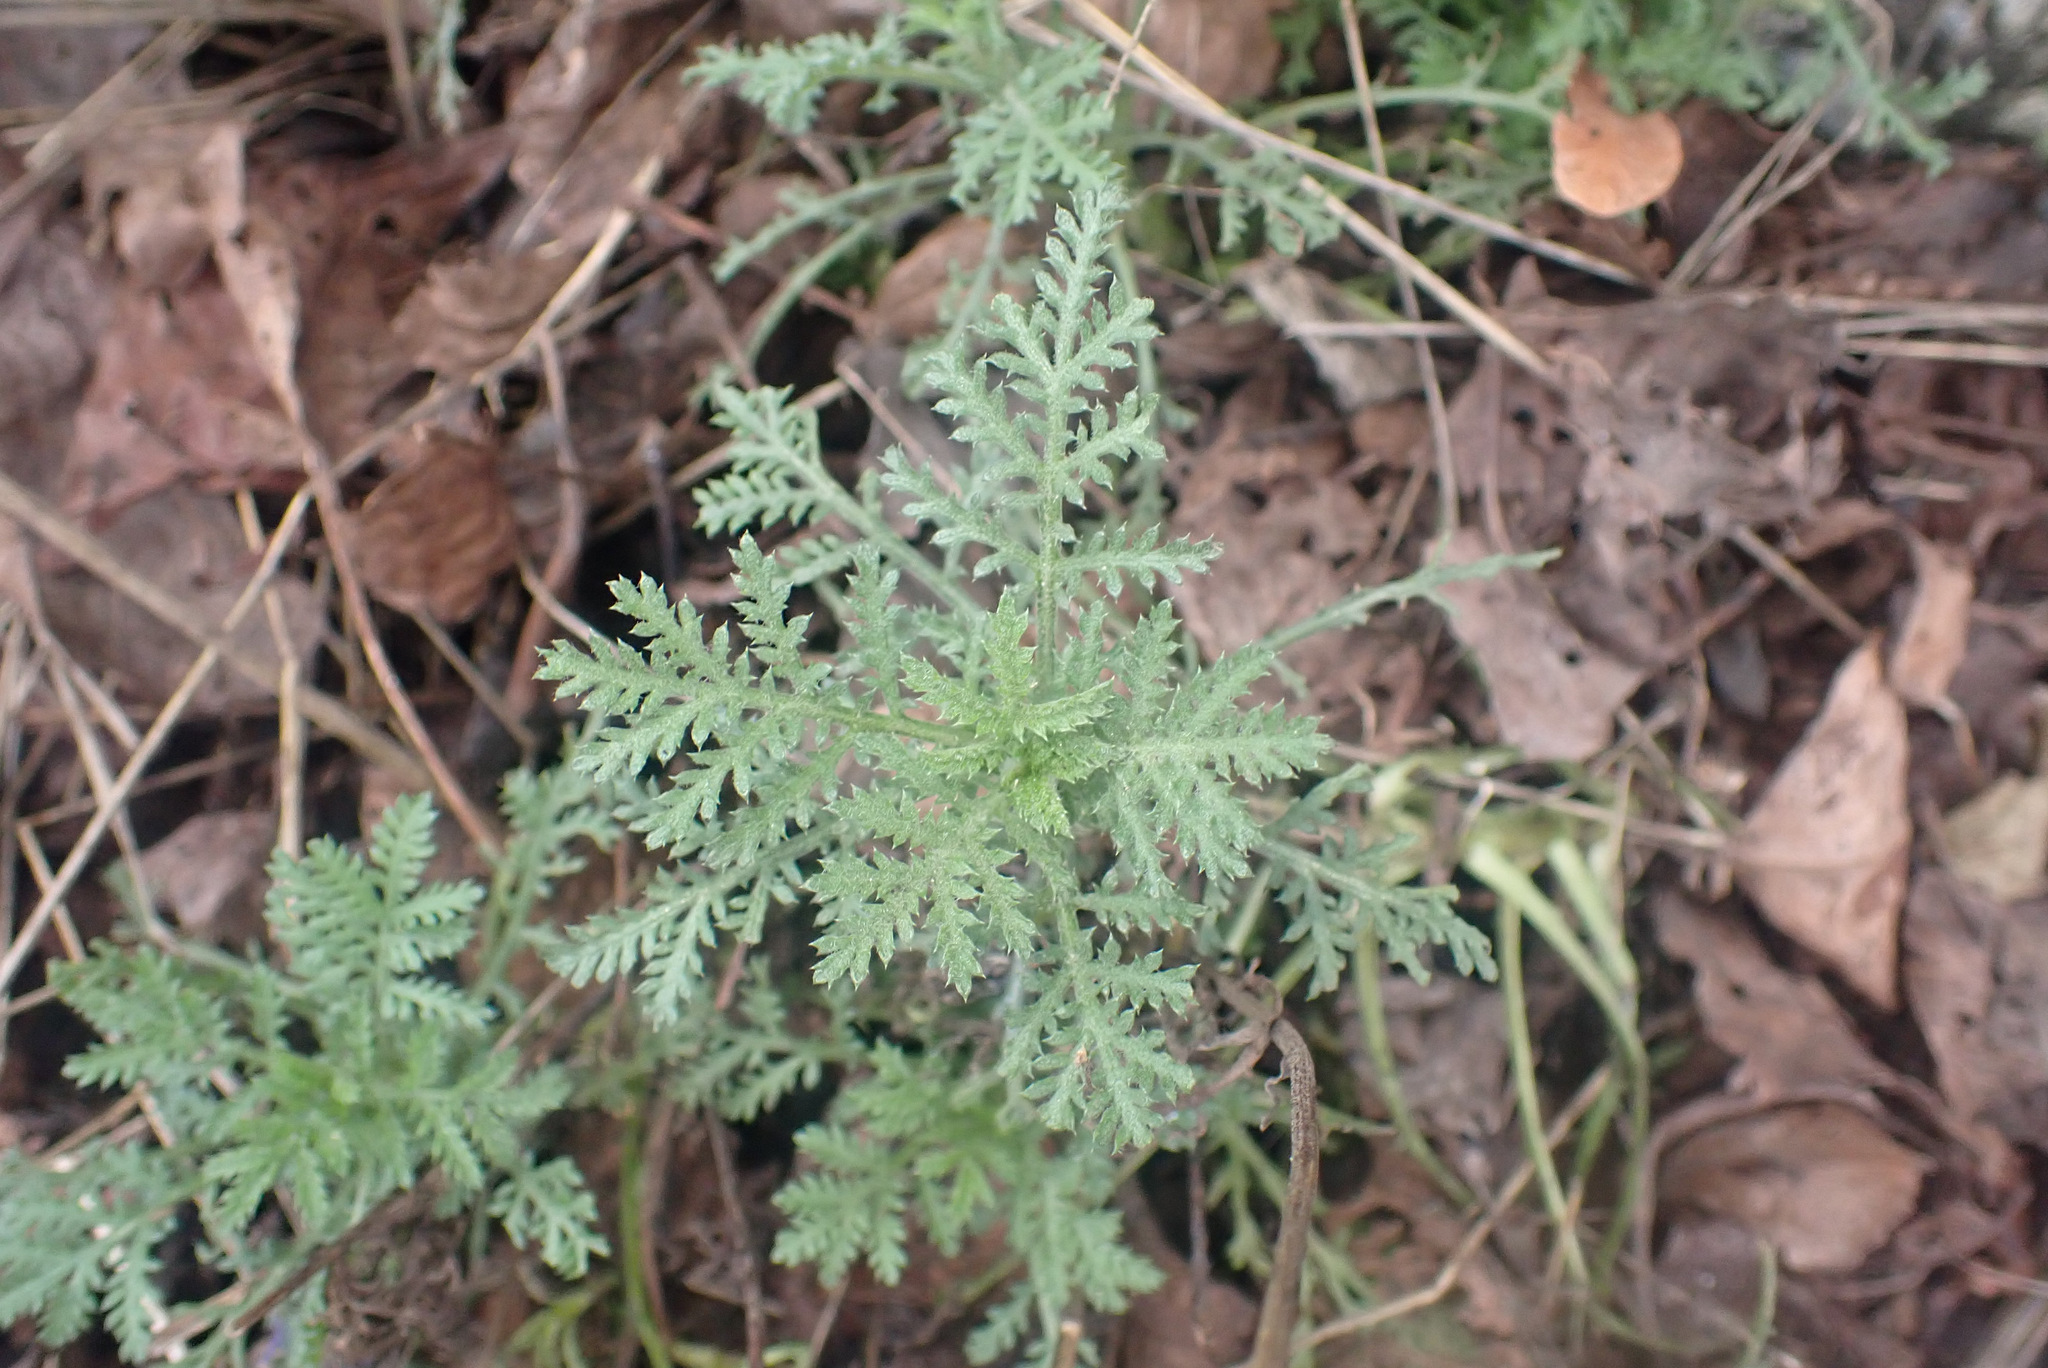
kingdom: Plantae
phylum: Tracheophyta
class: Magnoliopsida
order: Asterales
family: Asteraceae
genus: Cota
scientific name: Cota tinctoria
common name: Golden chamomile
